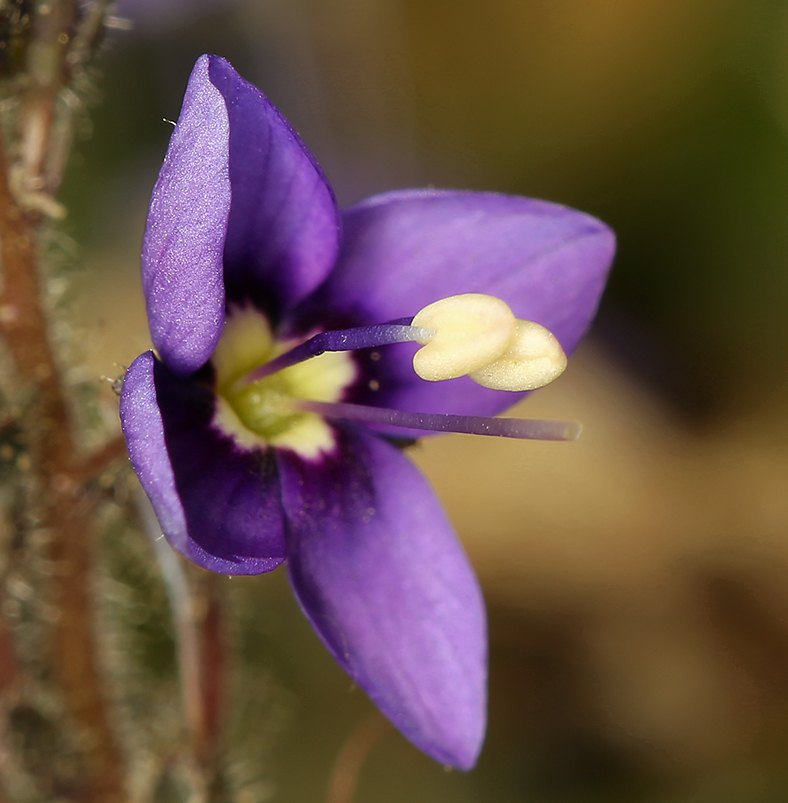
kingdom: Plantae
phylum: Tracheophyta
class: Magnoliopsida
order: Lamiales
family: Plantaginaceae
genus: Veronica
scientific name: Veronica copelandii
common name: Copeland's speedwell
